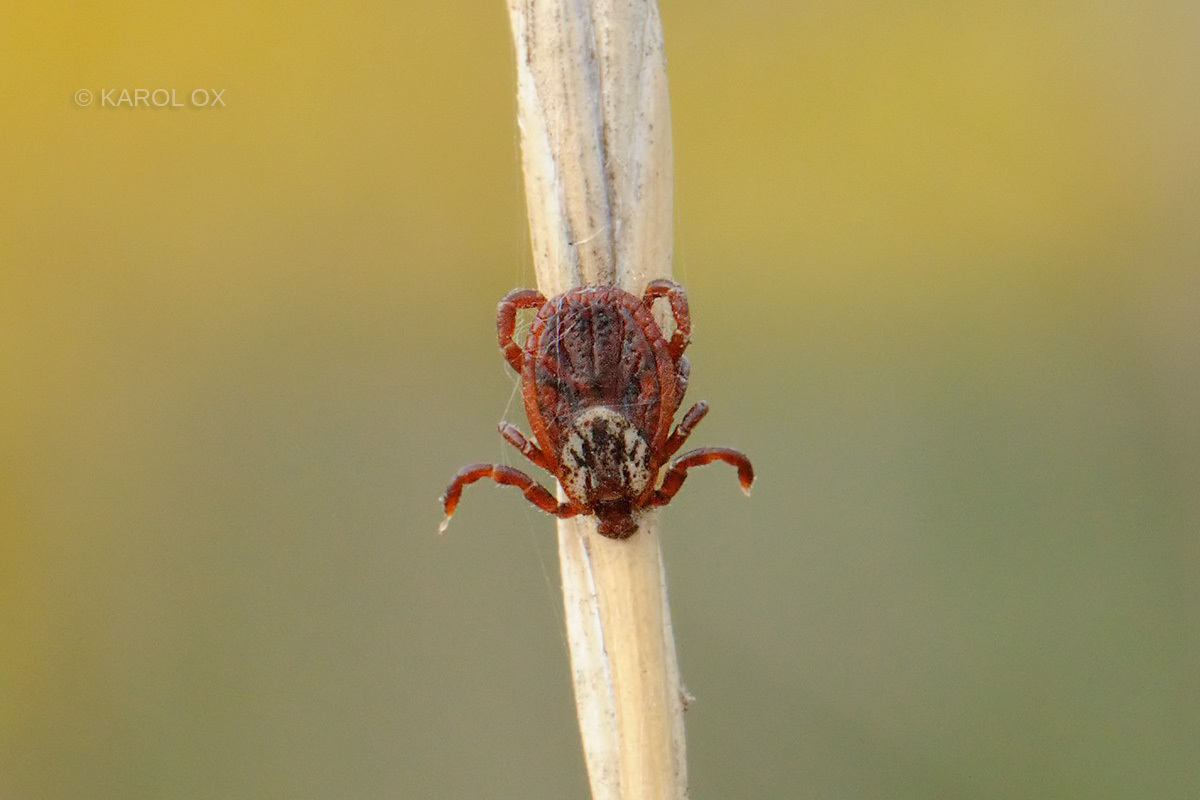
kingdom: Animalia
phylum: Arthropoda
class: Arachnida
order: Ixodida
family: Ixodidae
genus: Dermacentor
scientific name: Dermacentor reticulatus
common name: Ornate cow tick
